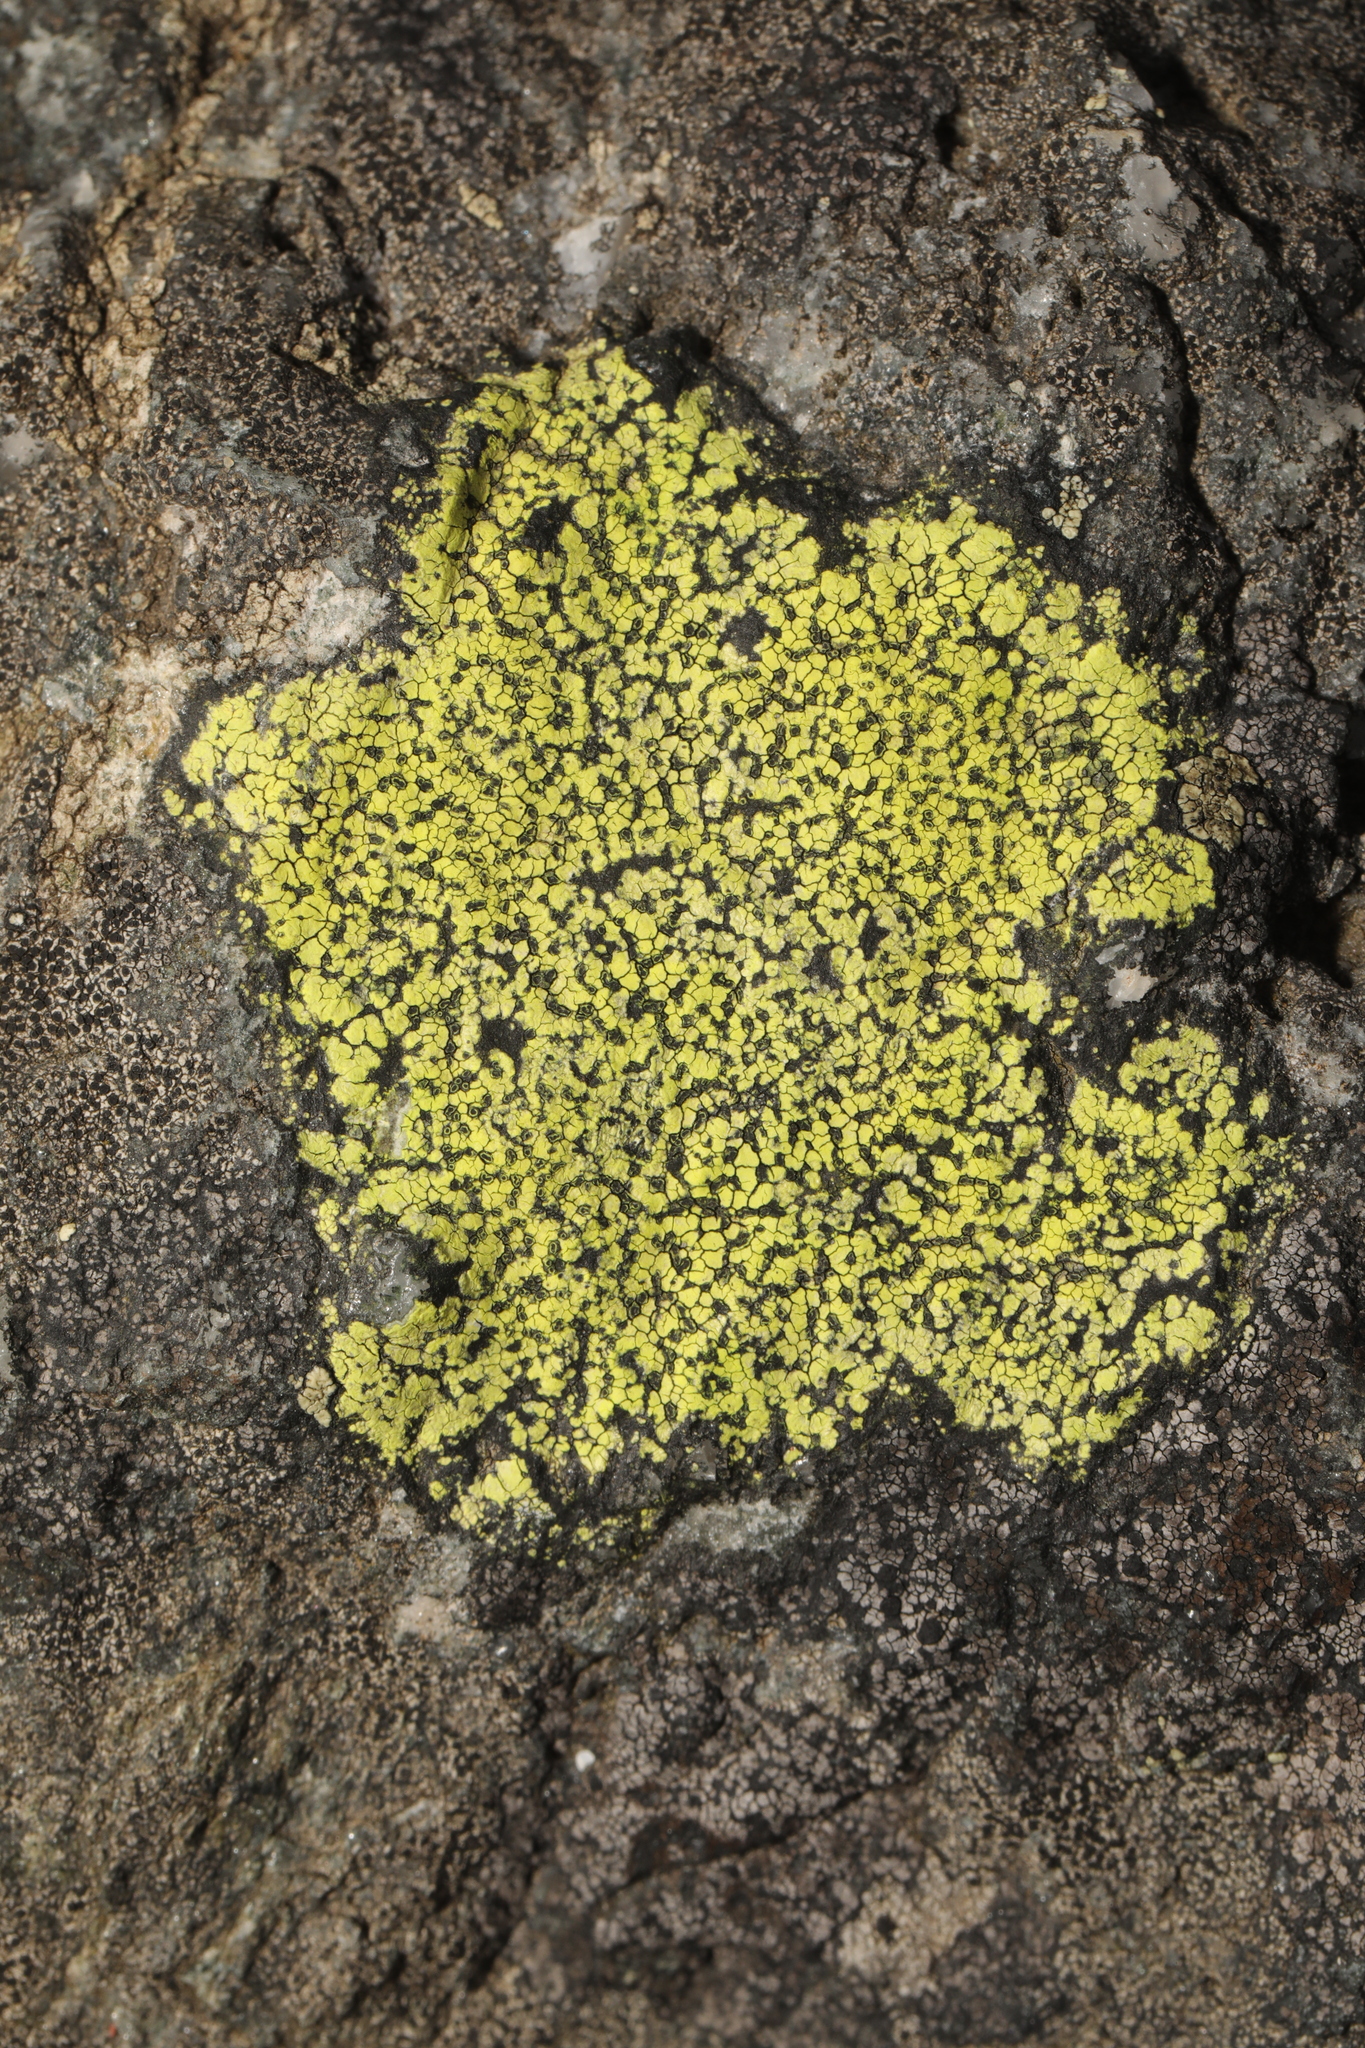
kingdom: Fungi
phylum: Ascomycota
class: Lecanoromycetes
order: Rhizocarpales
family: Rhizocarpaceae
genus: Rhizocarpon
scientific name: Rhizocarpon geographicum
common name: Yellow map lichen
